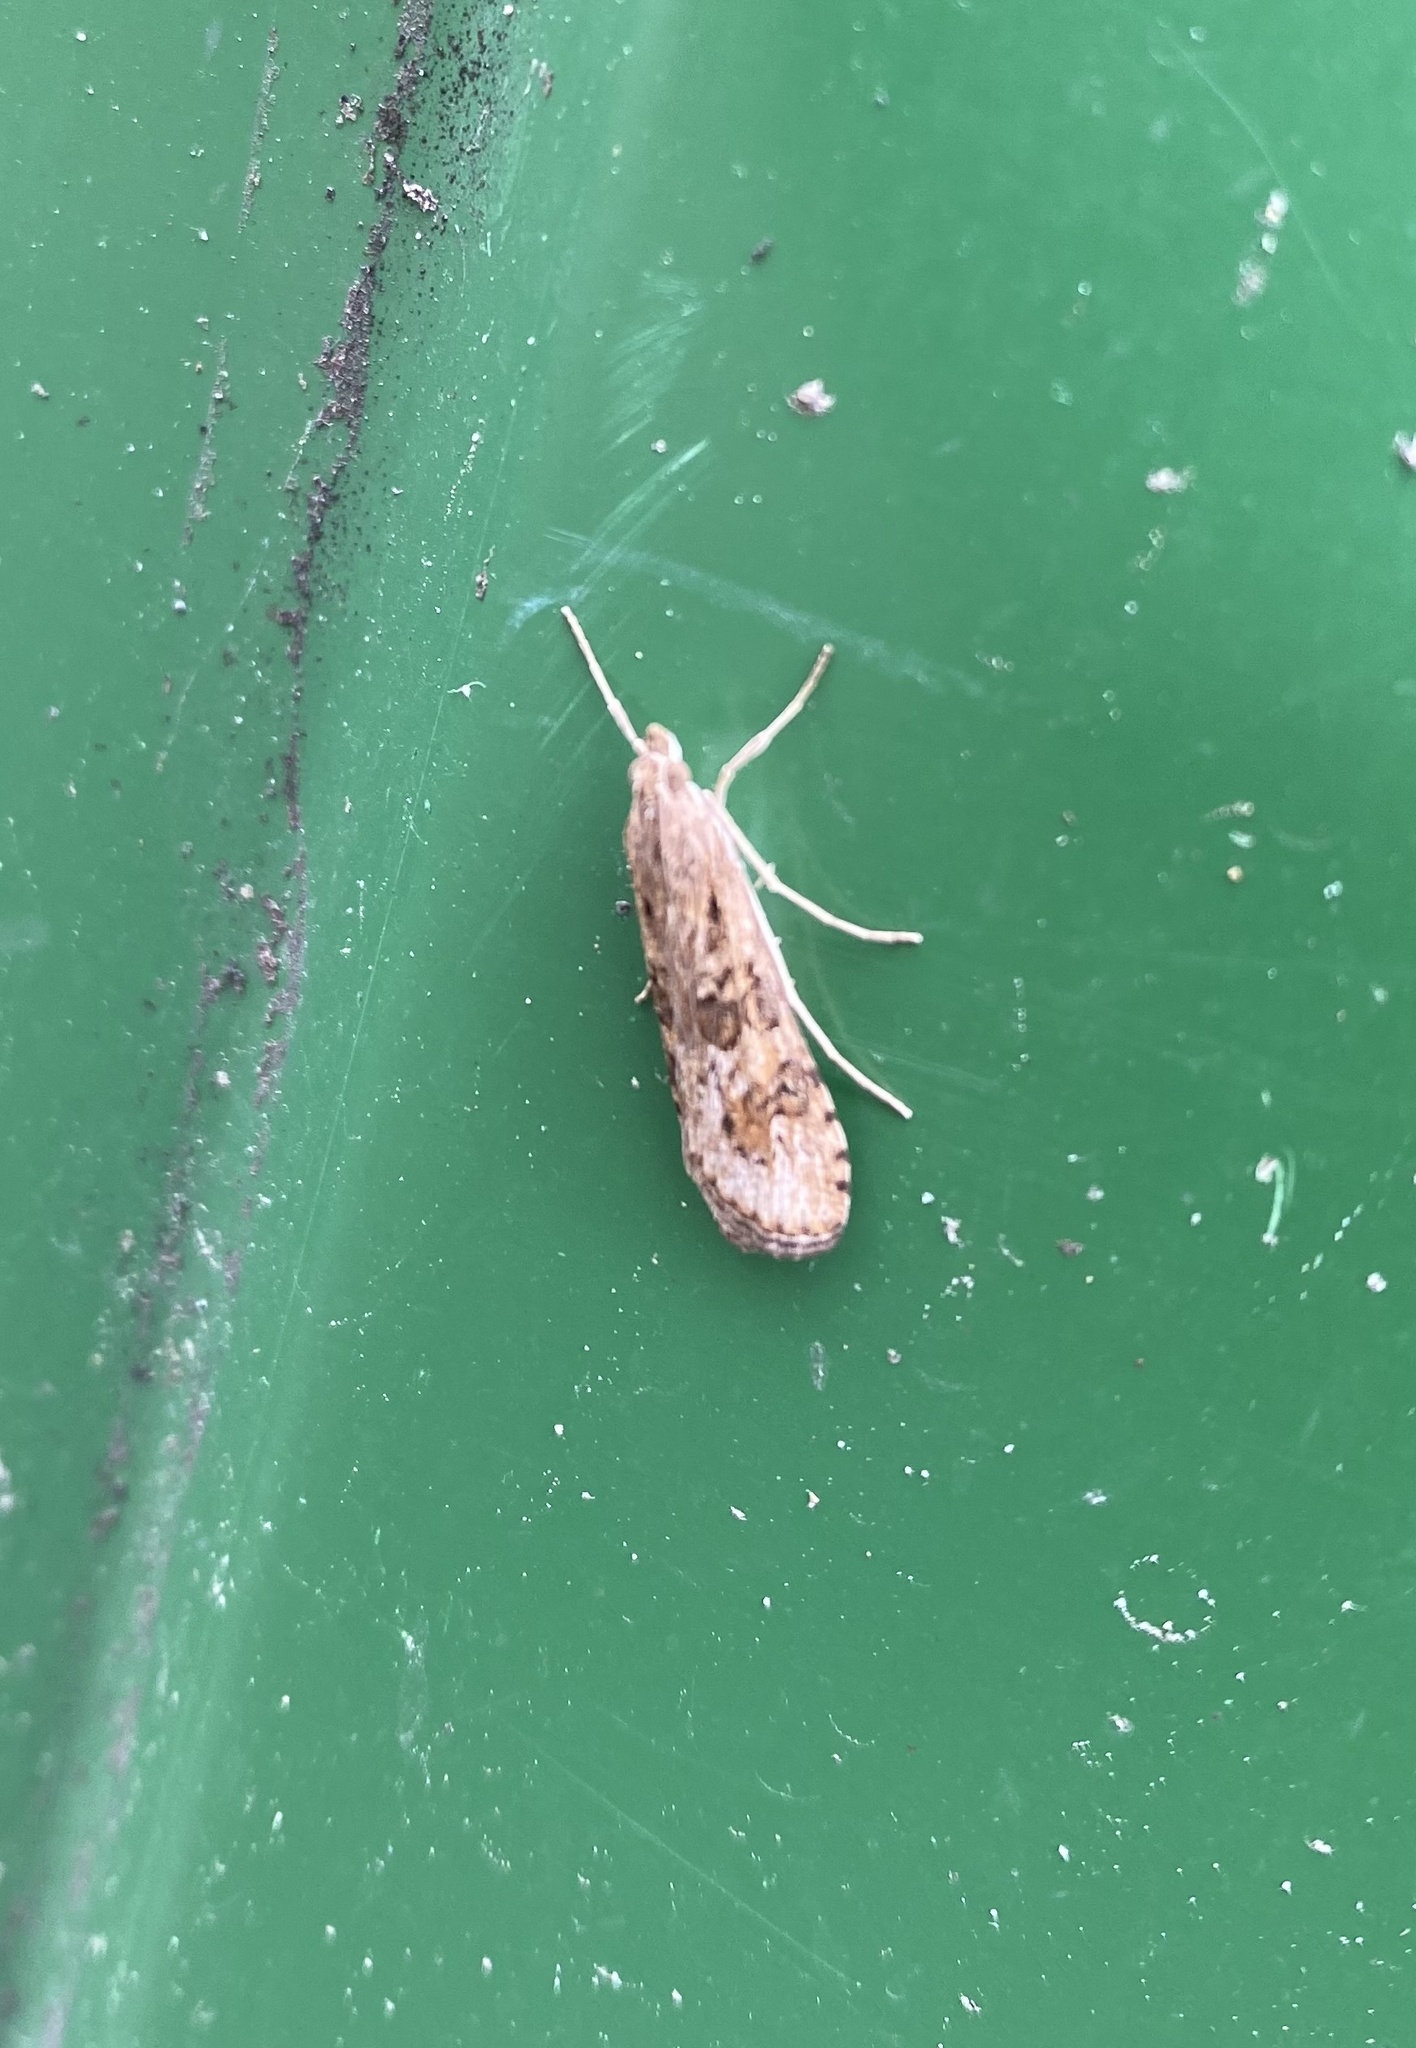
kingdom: Animalia
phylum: Arthropoda
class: Insecta
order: Lepidoptera
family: Crambidae
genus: Nomophila
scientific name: Nomophila noctuella
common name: Rush veneer
